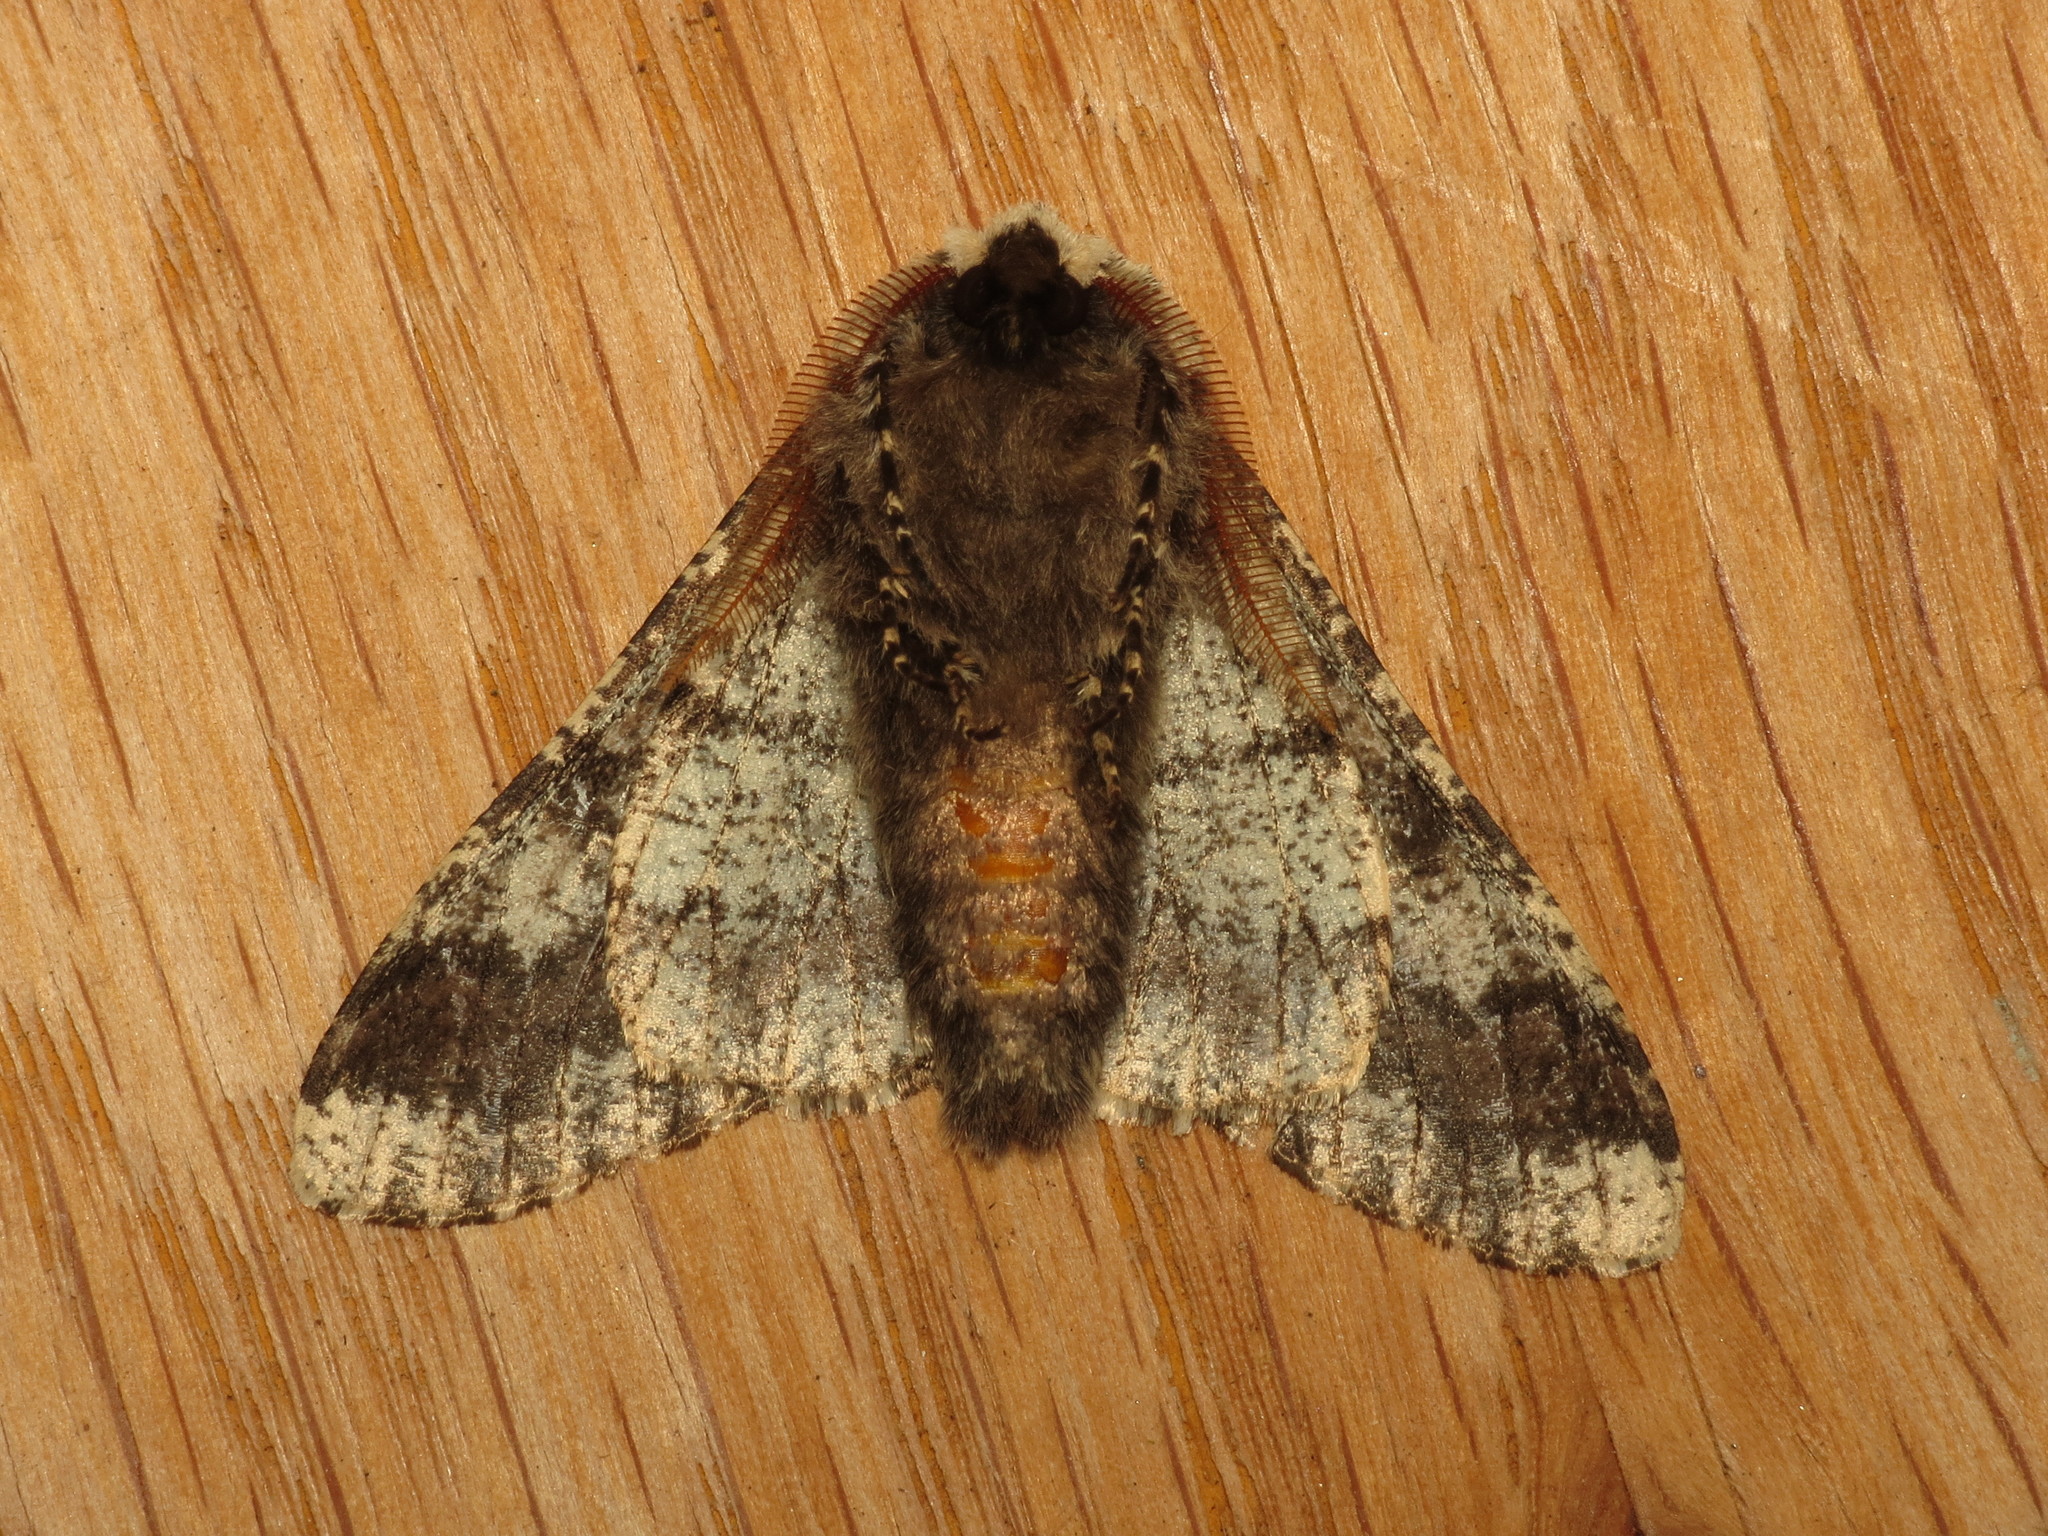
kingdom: Animalia
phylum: Arthropoda
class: Insecta
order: Lepidoptera
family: Geometridae
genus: Biston
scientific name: Biston strataria
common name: Oak beauty
